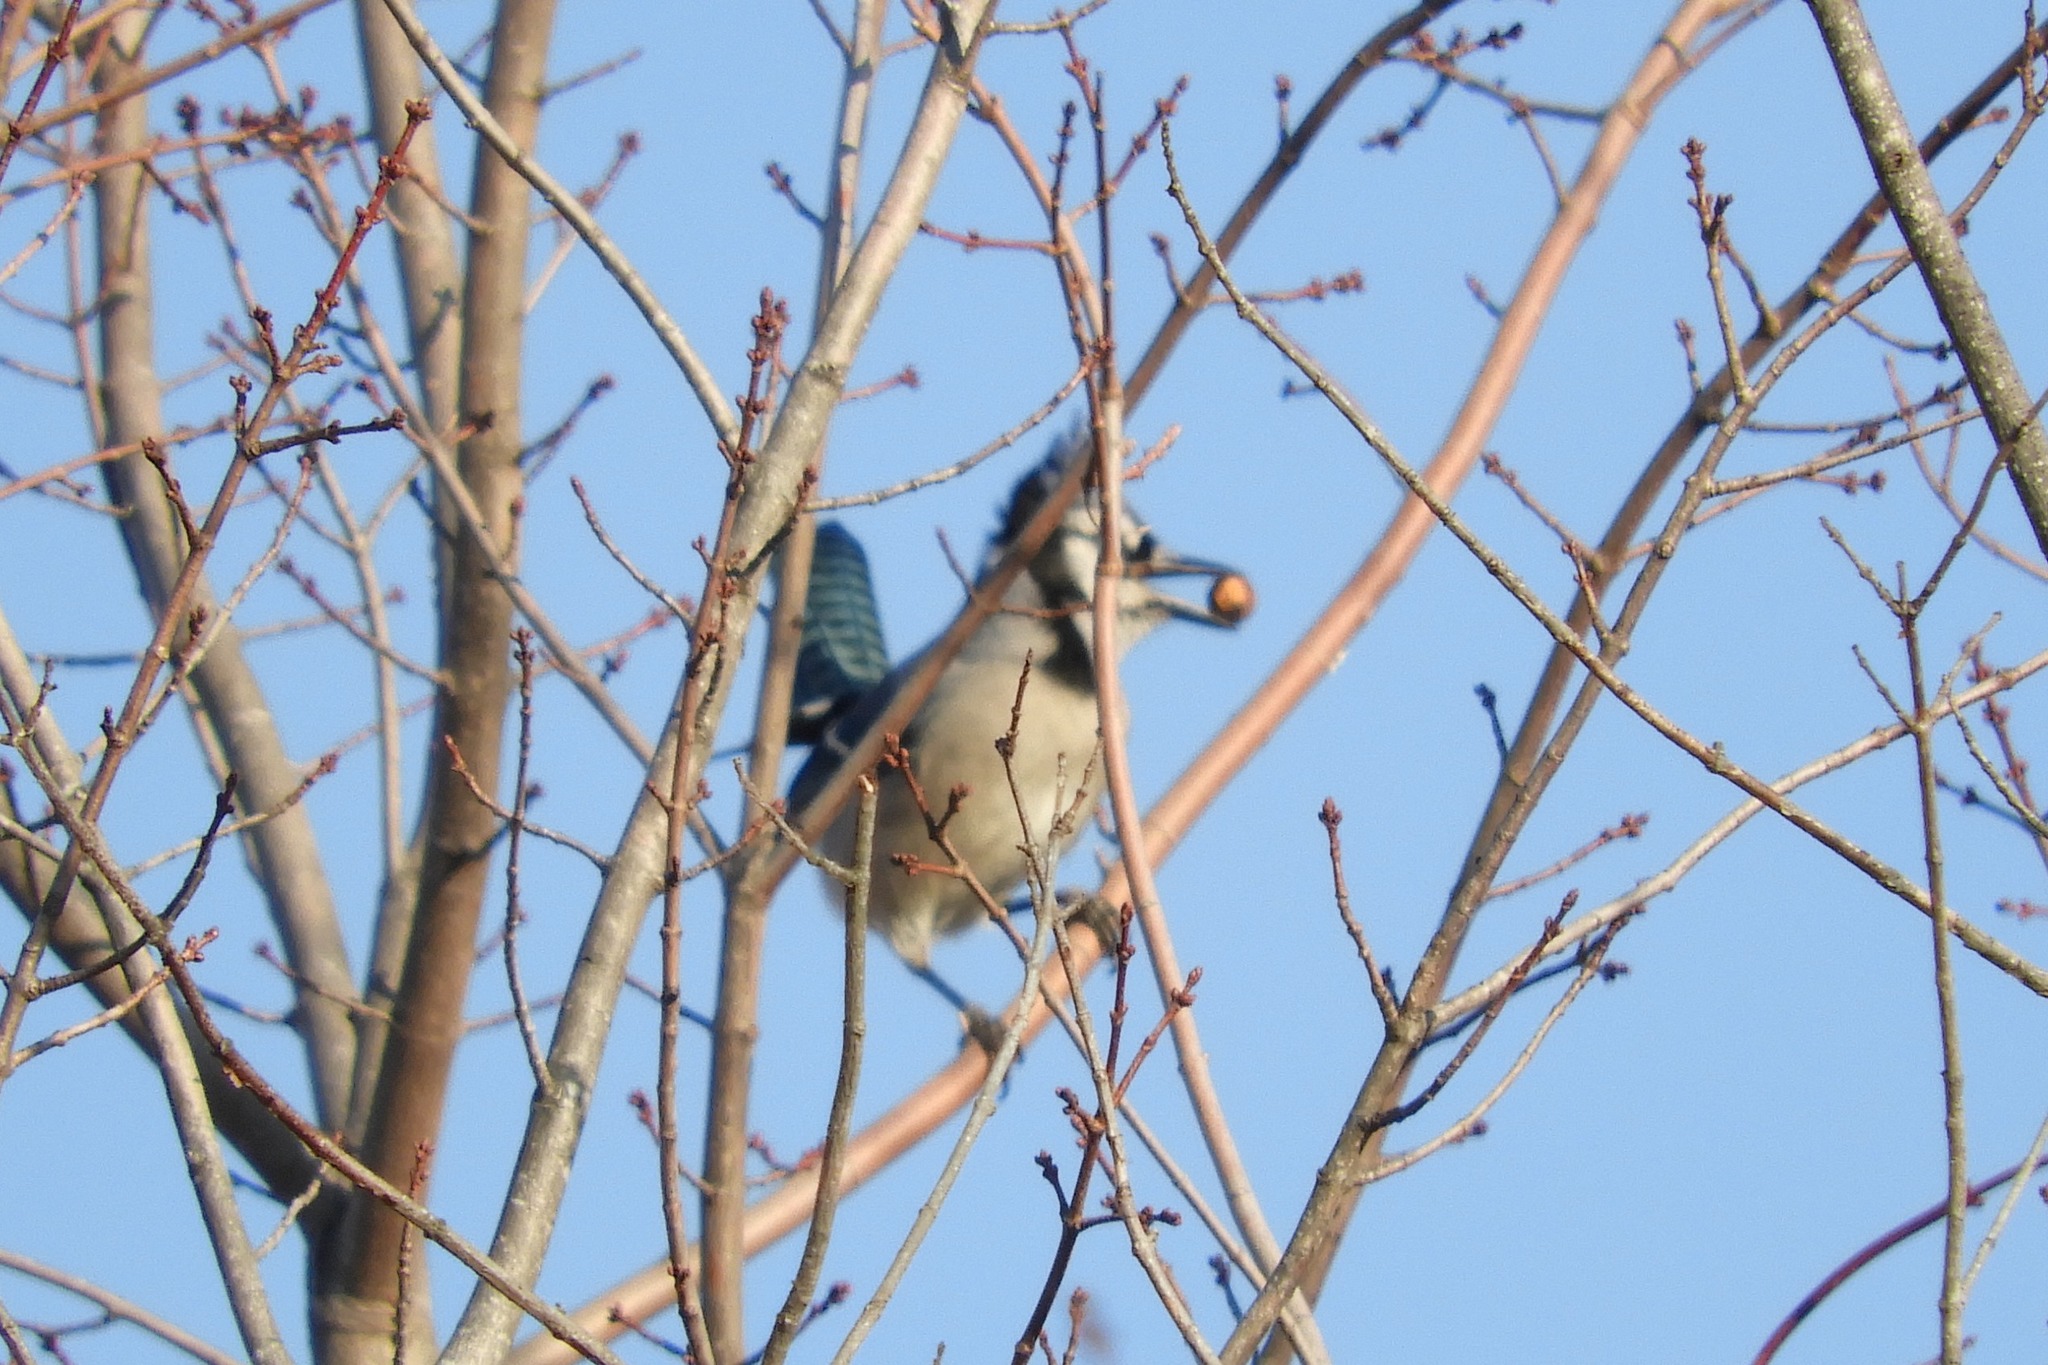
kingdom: Animalia
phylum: Chordata
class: Aves
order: Passeriformes
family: Corvidae
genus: Cyanocitta
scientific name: Cyanocitta cristata
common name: Blue jay
